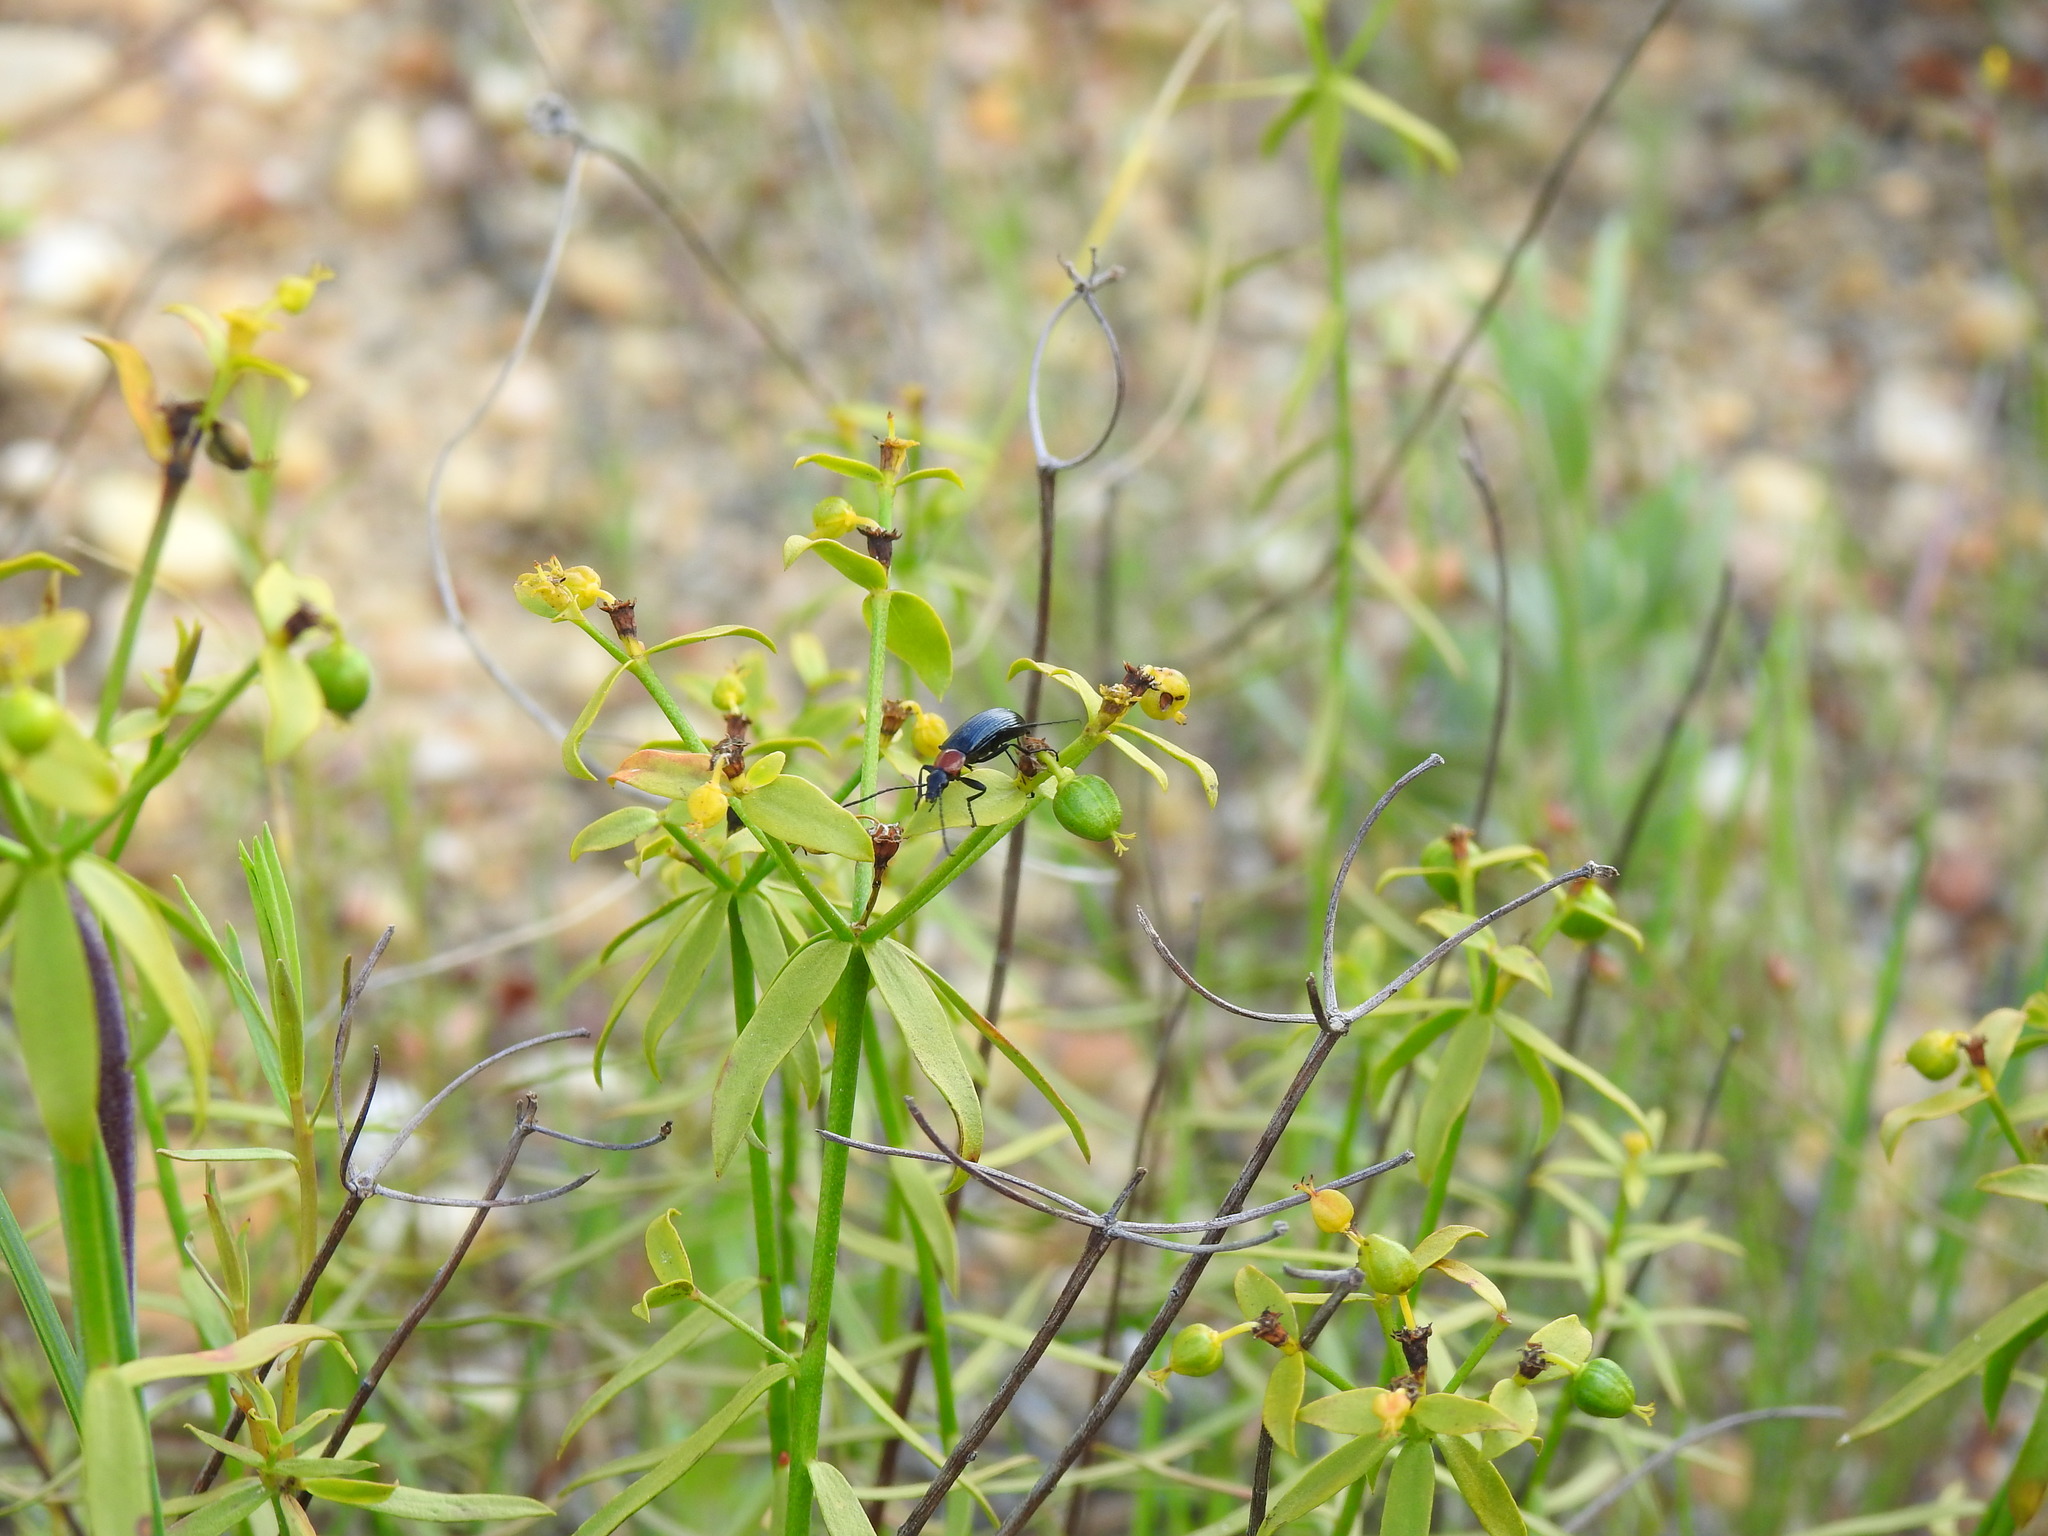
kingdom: Plantae
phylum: Tracheophyta
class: Magnoliopsida
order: Malpighiales
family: Euphorbiaceae
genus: Euphorbia
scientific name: Euphorbia boetica
